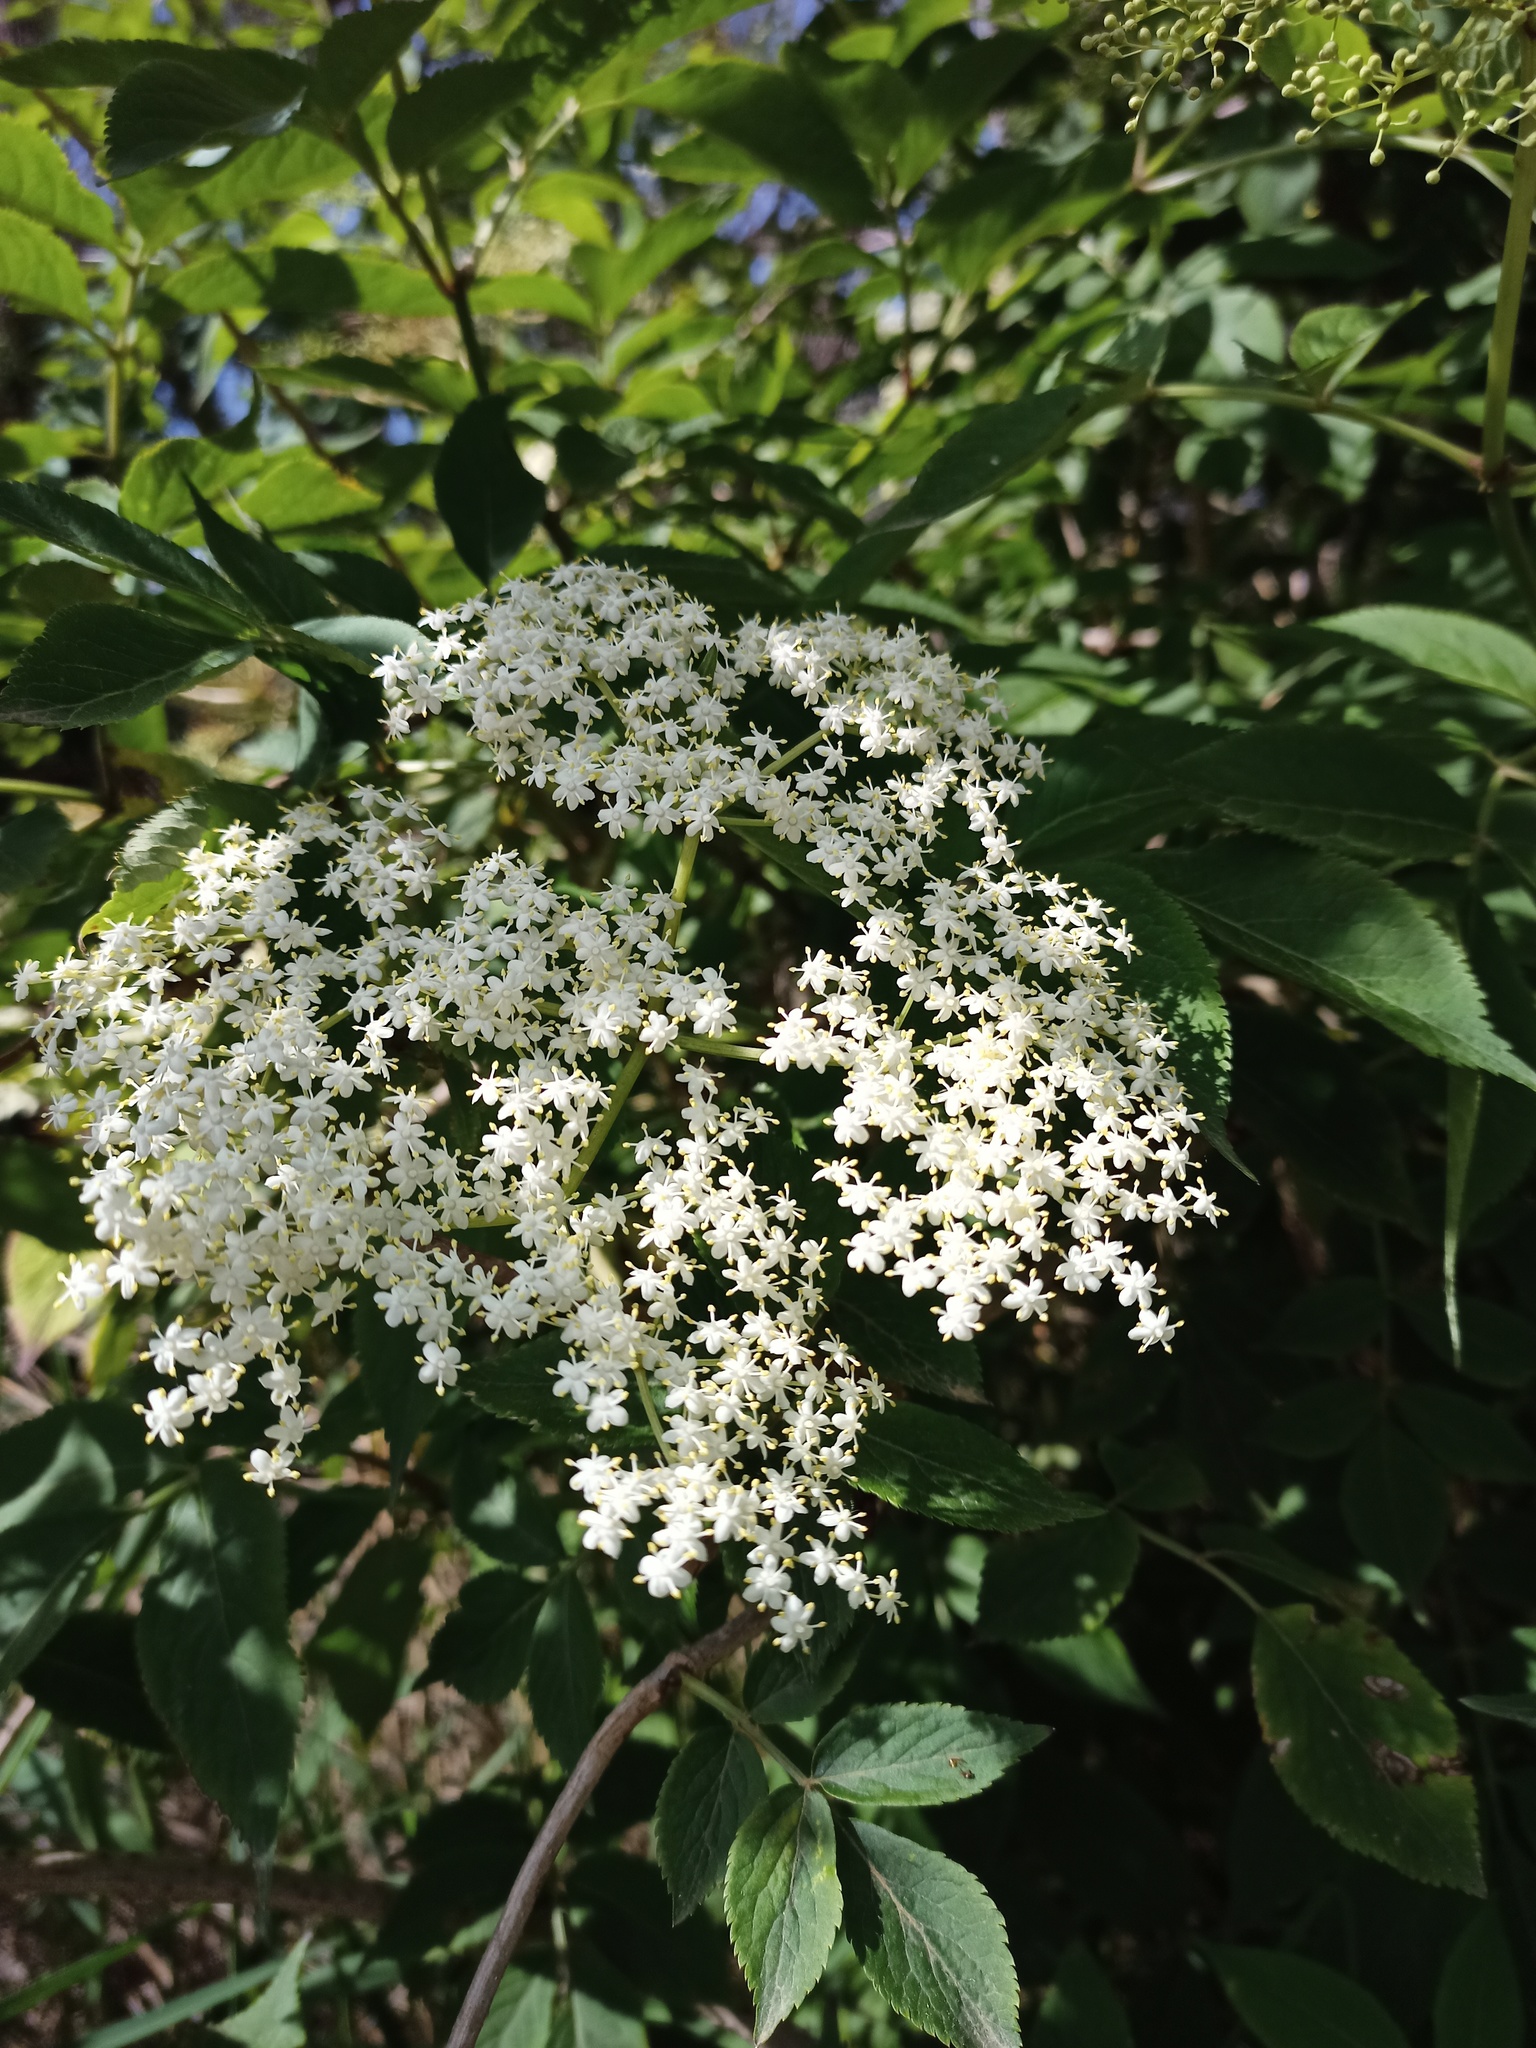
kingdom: Plantae
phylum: Tracheophyta
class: Magnoliopsida
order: Dipsacales
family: Viburnaceae
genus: Sambucus
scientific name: Sambucus nigra
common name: Elder
